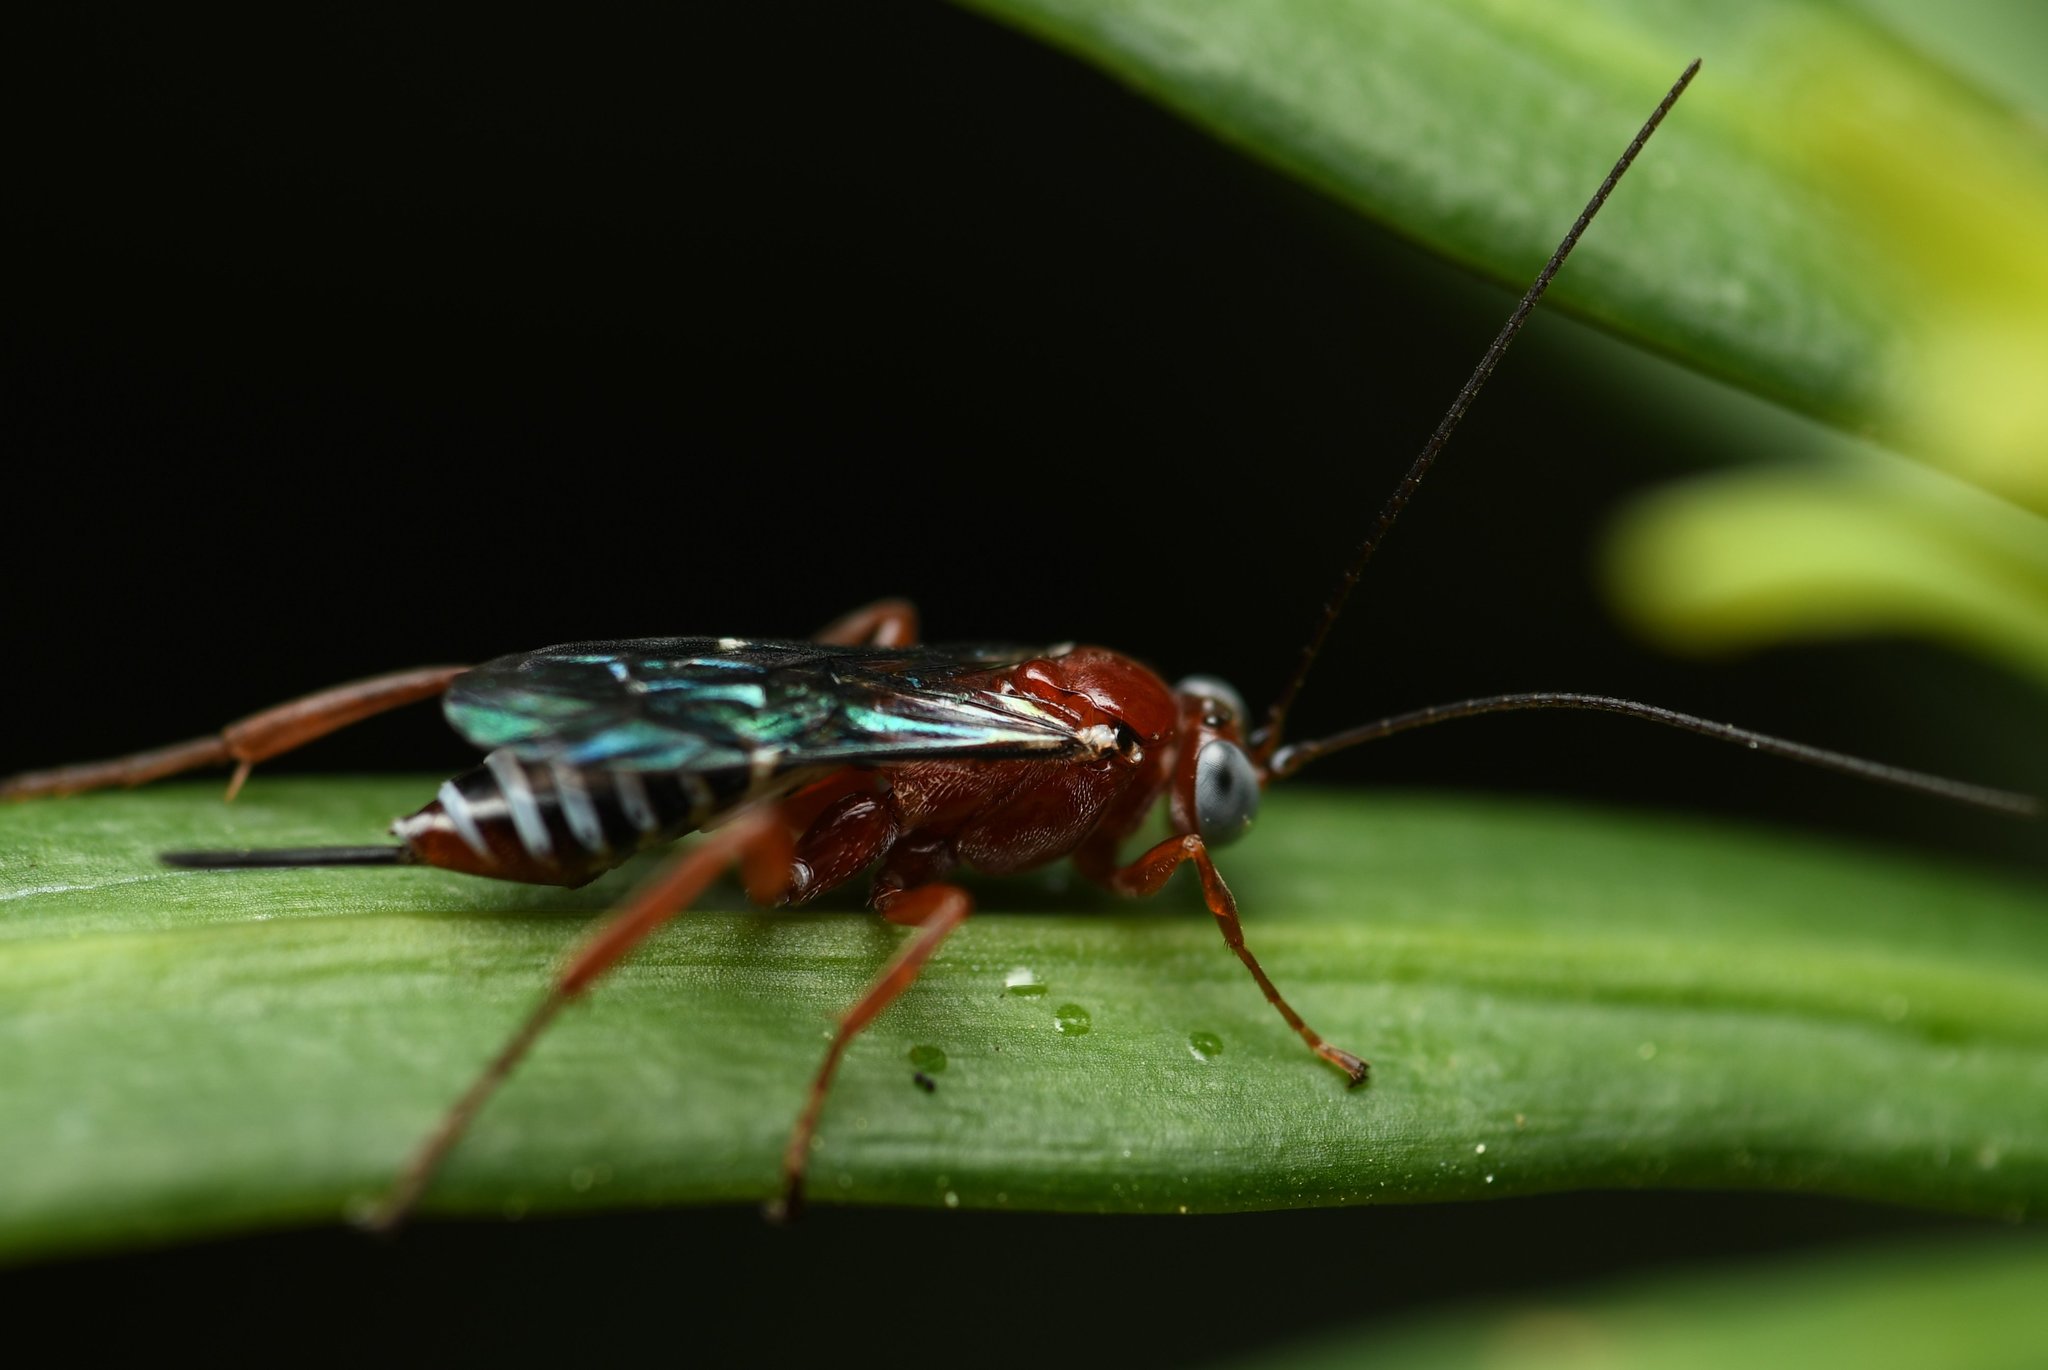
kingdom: Animalia
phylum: Arthropoda
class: Insecta
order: Hymenoptera
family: Ichneumonidae
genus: Pimpla
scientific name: Pimpla marginella
